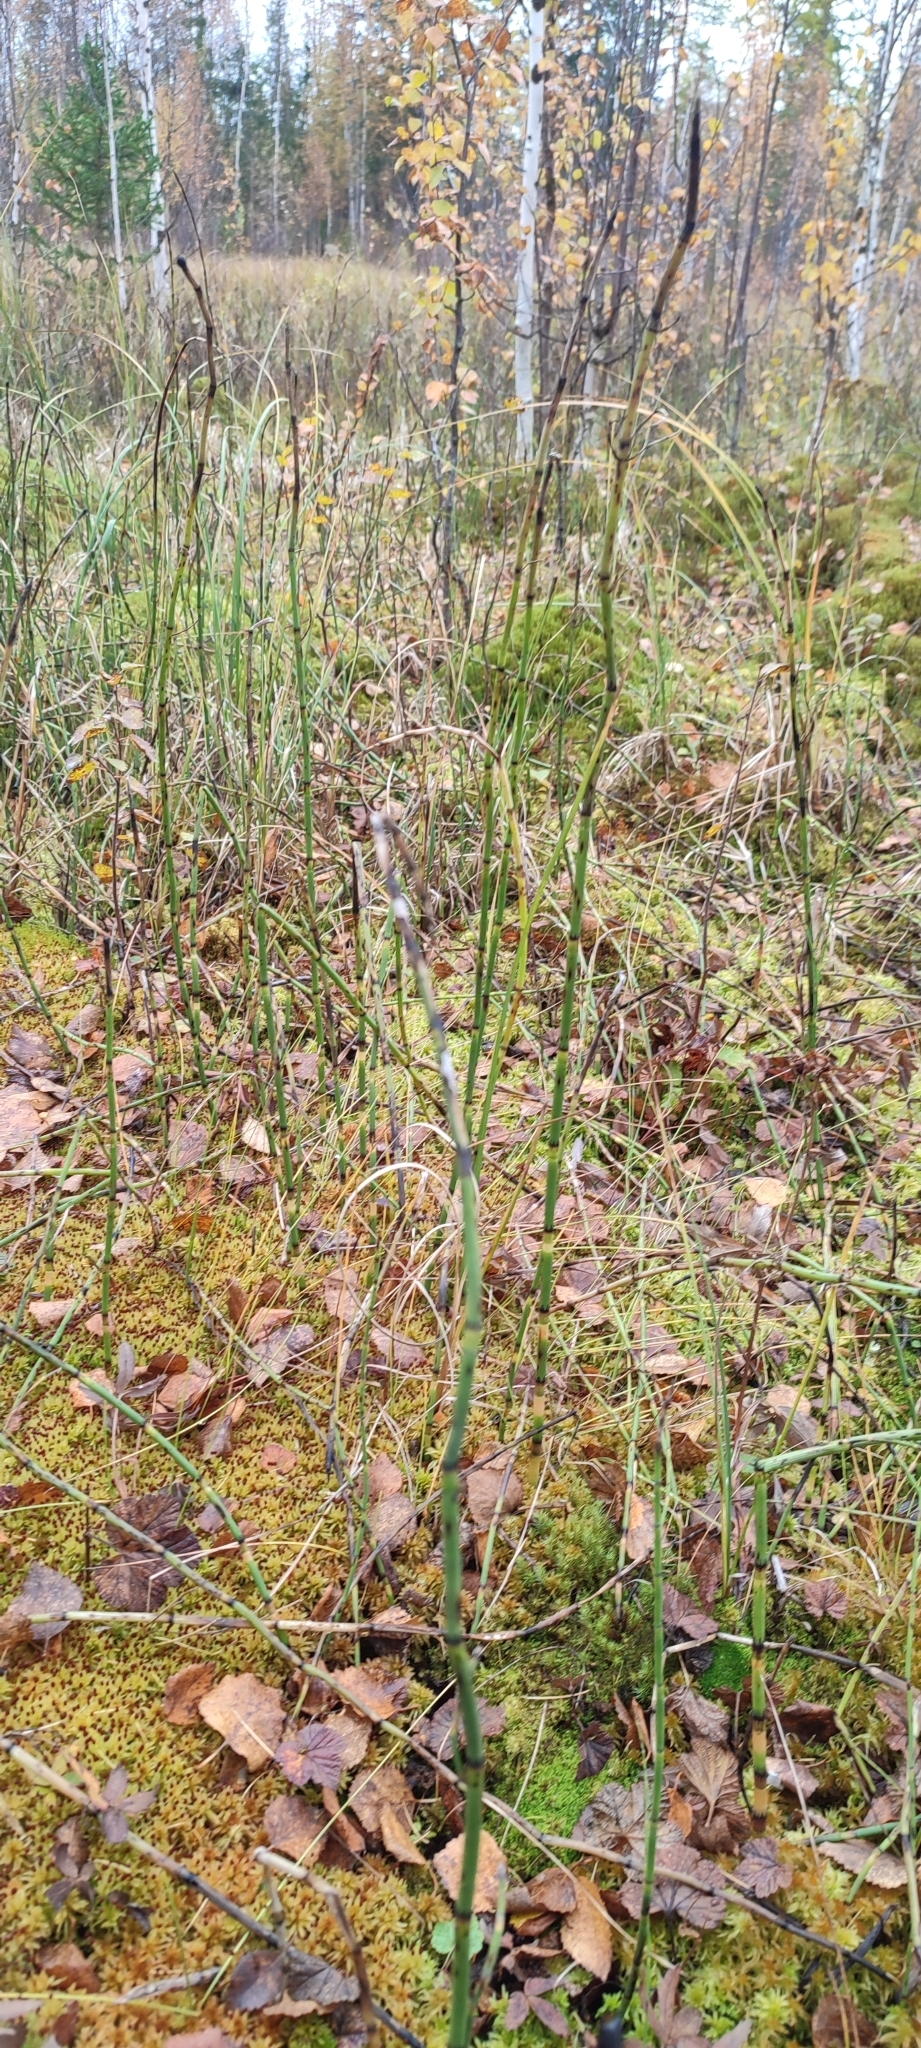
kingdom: Plantae
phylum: Tracheophyta
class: Polypodiopsida
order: Equisetales
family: Equisetaceae
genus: Equisetum
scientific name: Equisetum fluviatile
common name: Water horsetail
